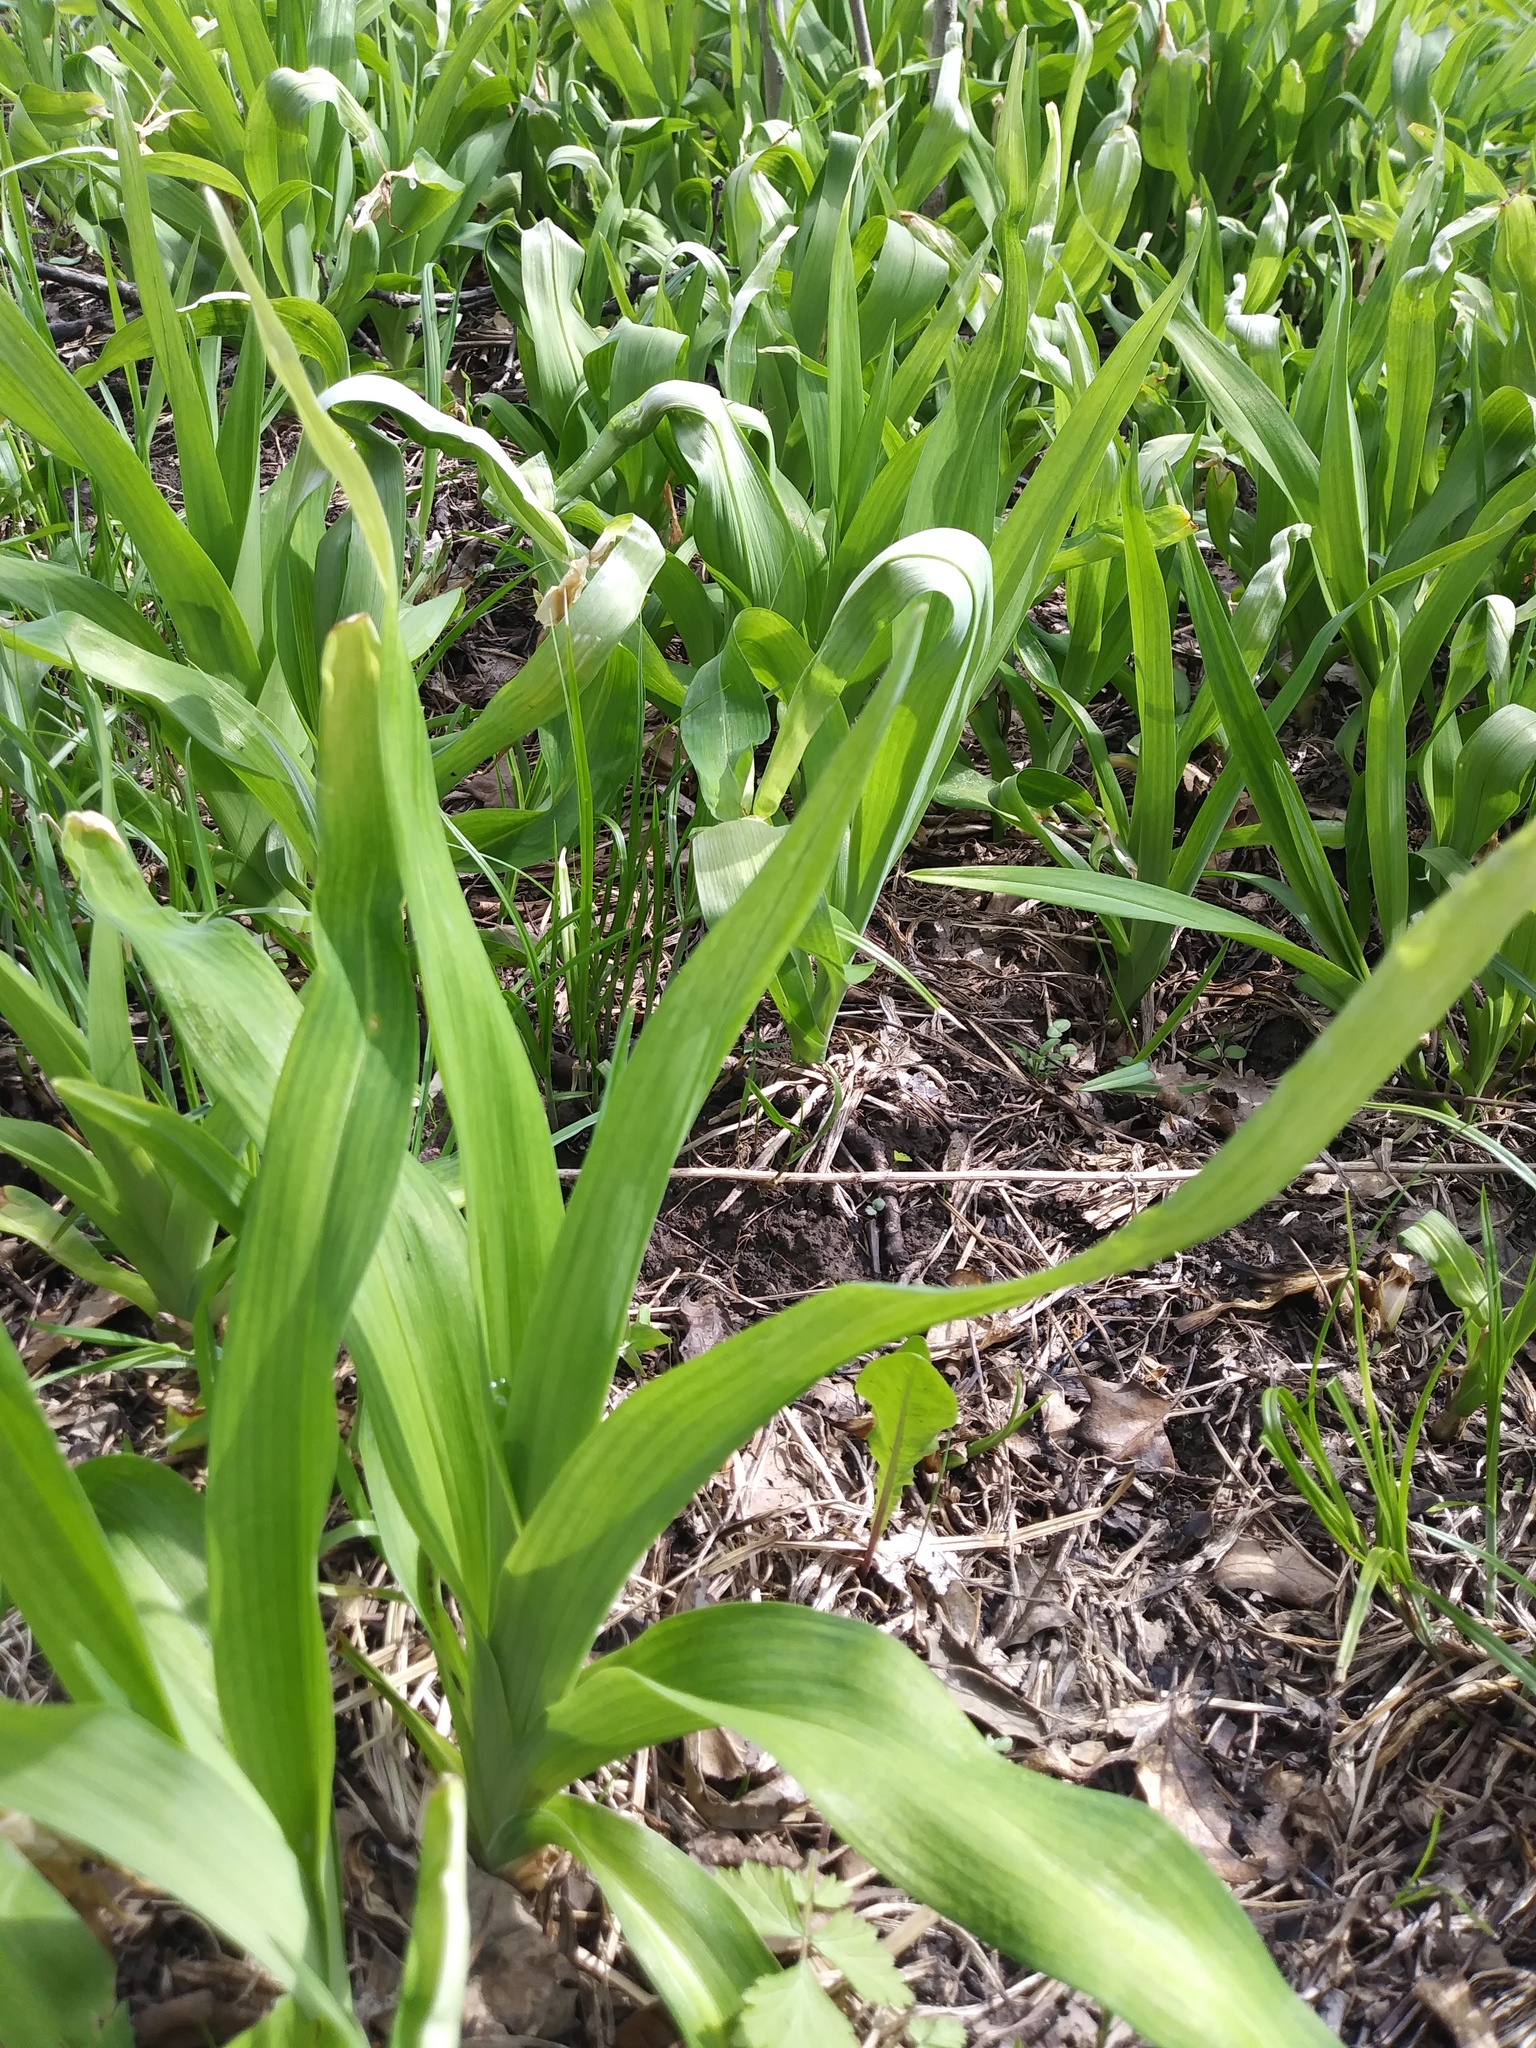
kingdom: Plantae
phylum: Tracheophyta
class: Liliopsida
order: Asparagales
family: Asphodelaceae
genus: Hemerocallis
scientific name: Hemerocallis fulva
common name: Orange day-lily
